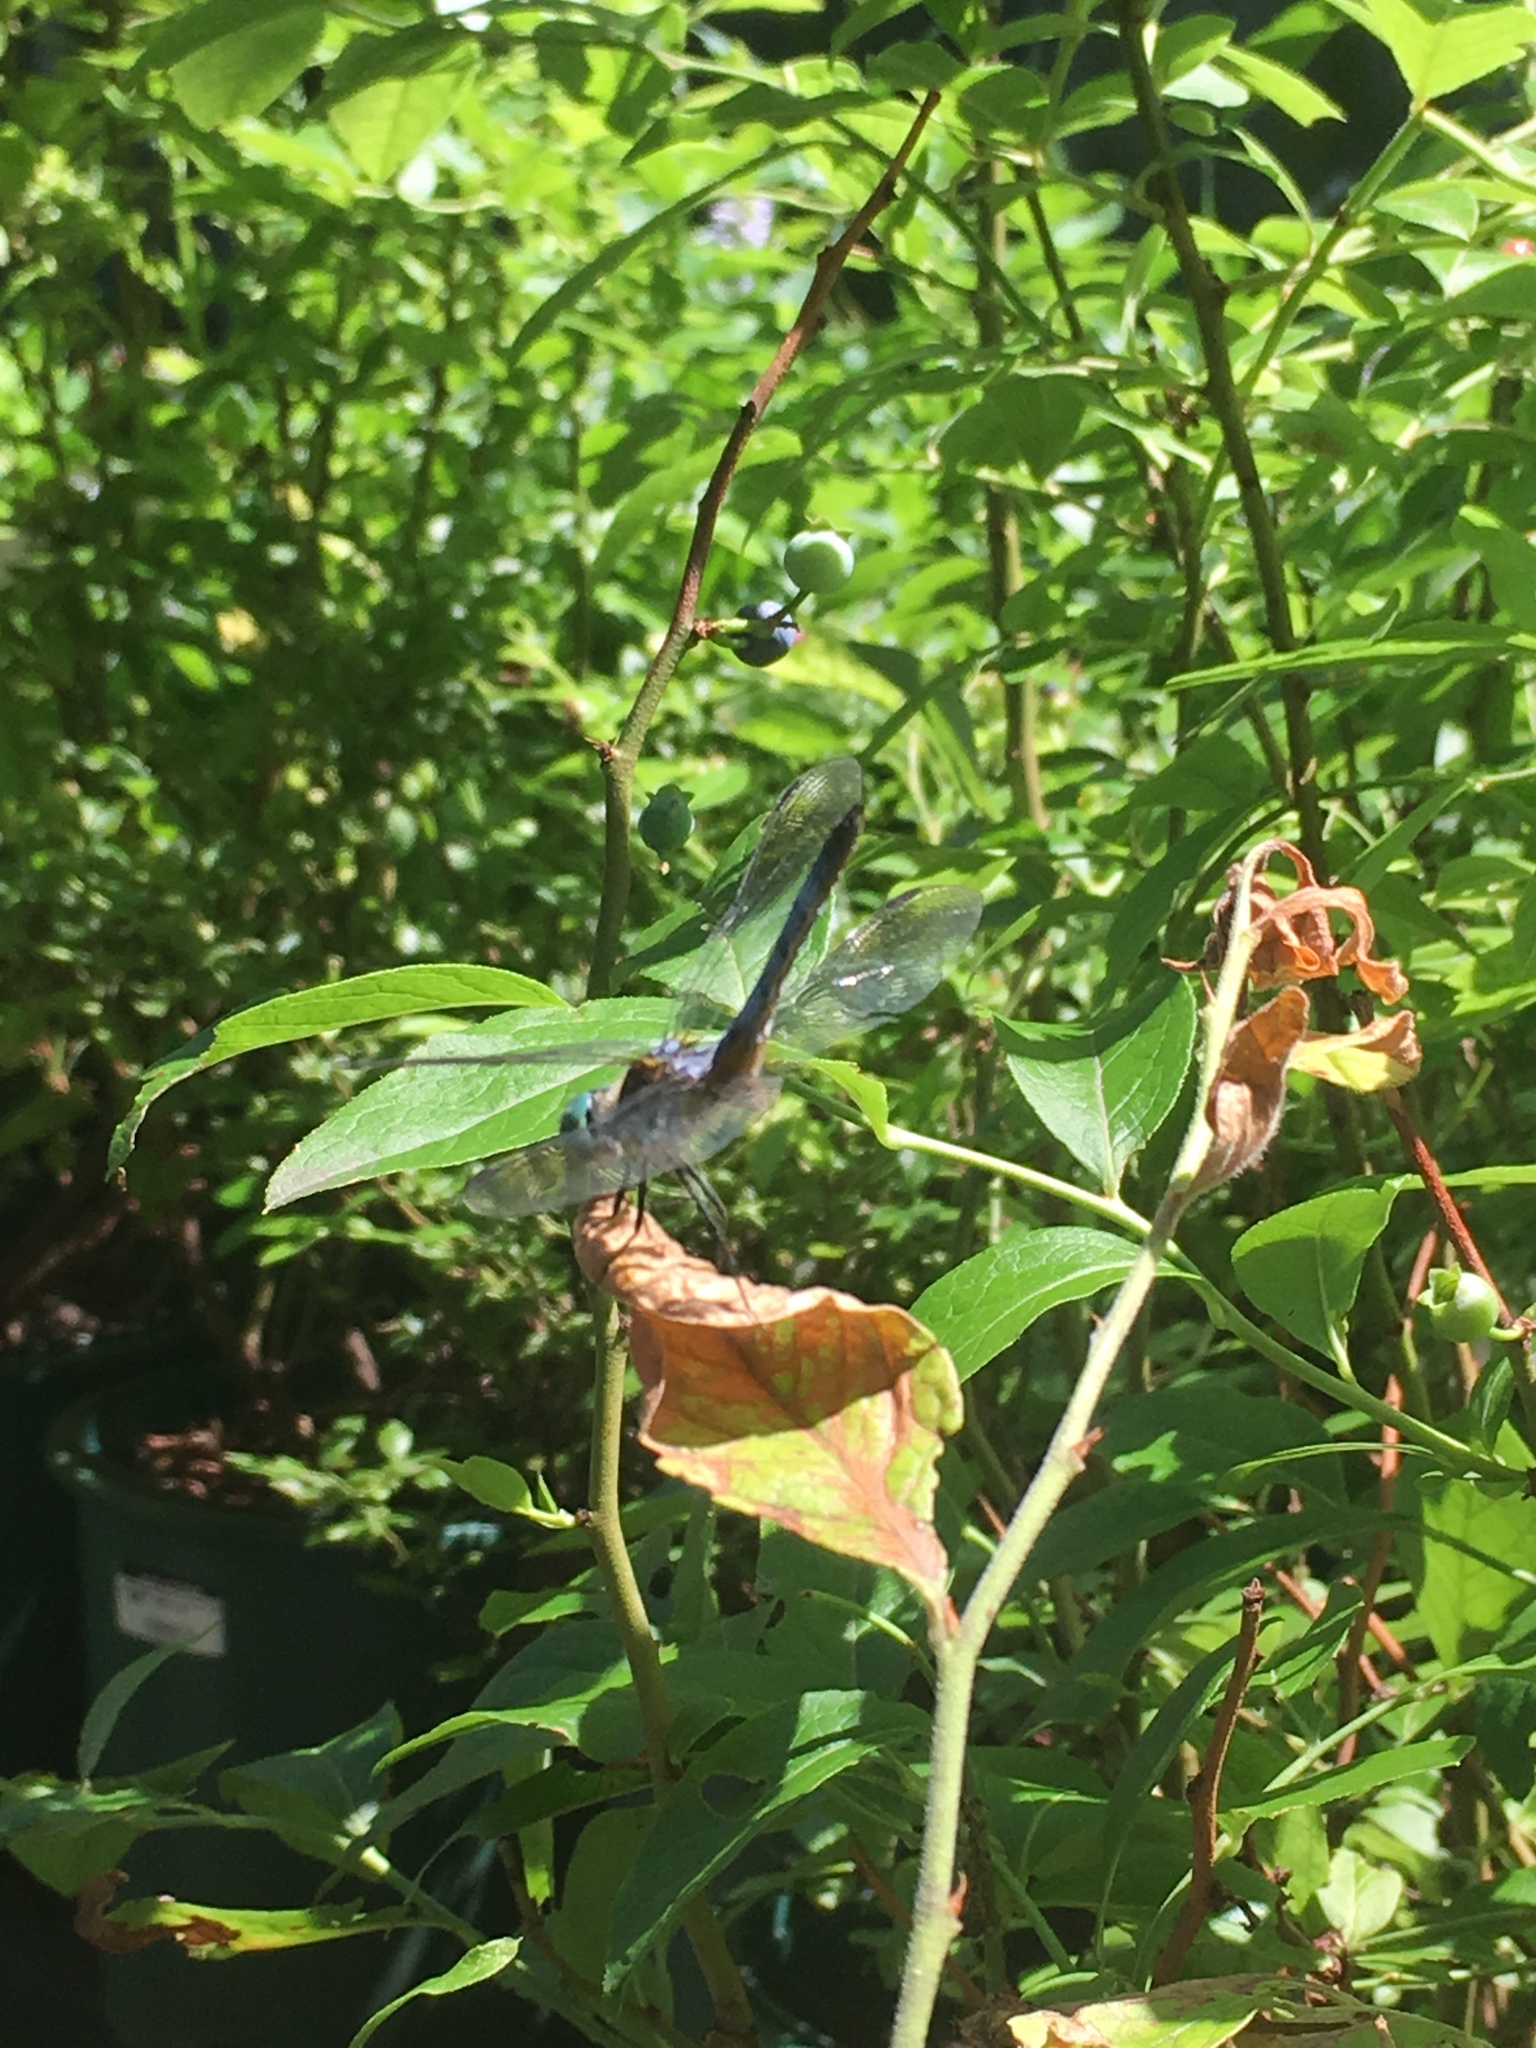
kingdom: Animalia
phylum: Arthropoda
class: Insecta
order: Odonata
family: Libellulidae
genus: Pachydiplax
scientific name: Pachydiplax longipennis
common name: Blue dasher
